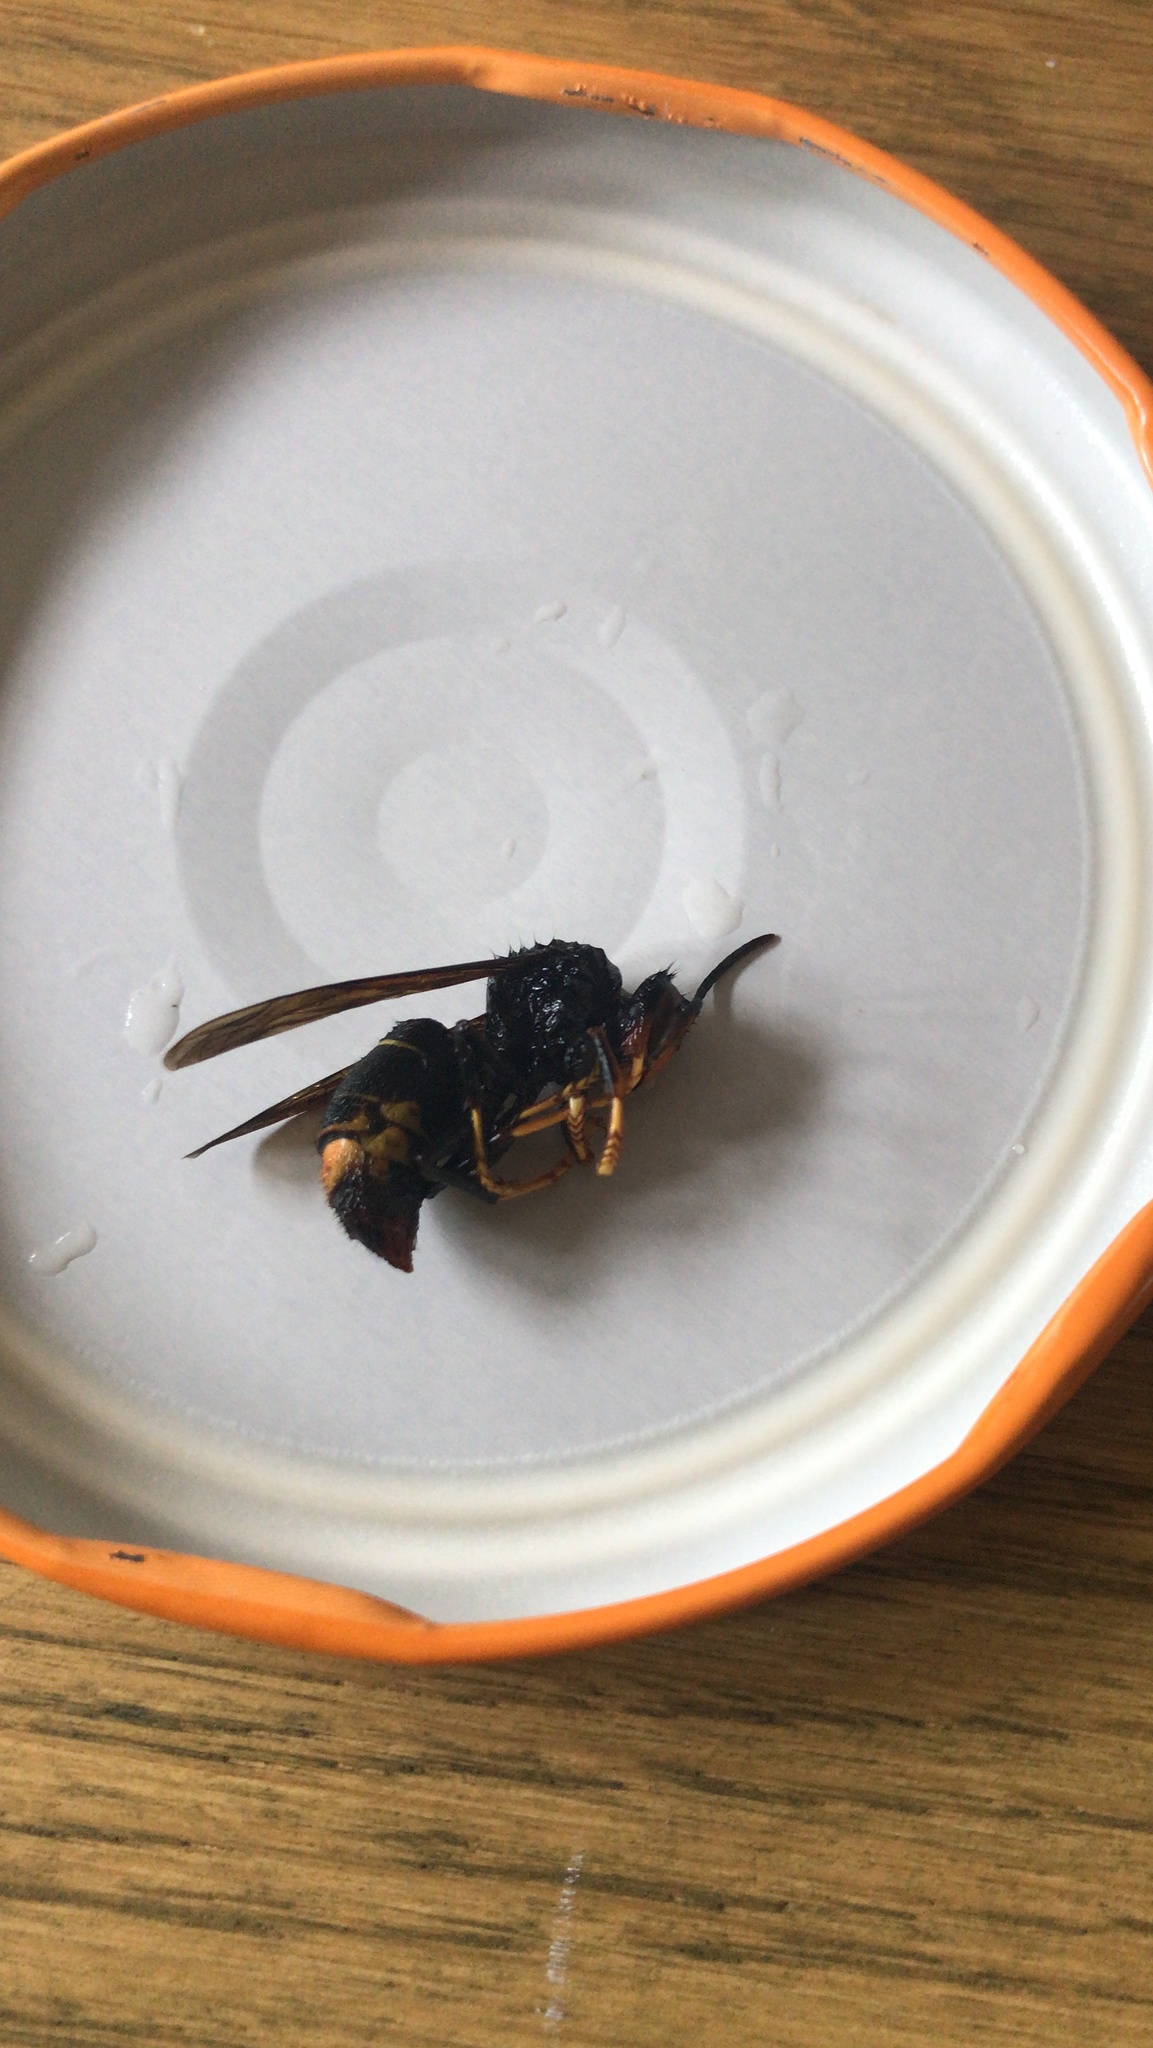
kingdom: Animalia
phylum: Arthropoda
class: Insecta
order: Hymenoptera
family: Vespidae
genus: Vespa
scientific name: Vespa velutina
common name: Asian hornet
